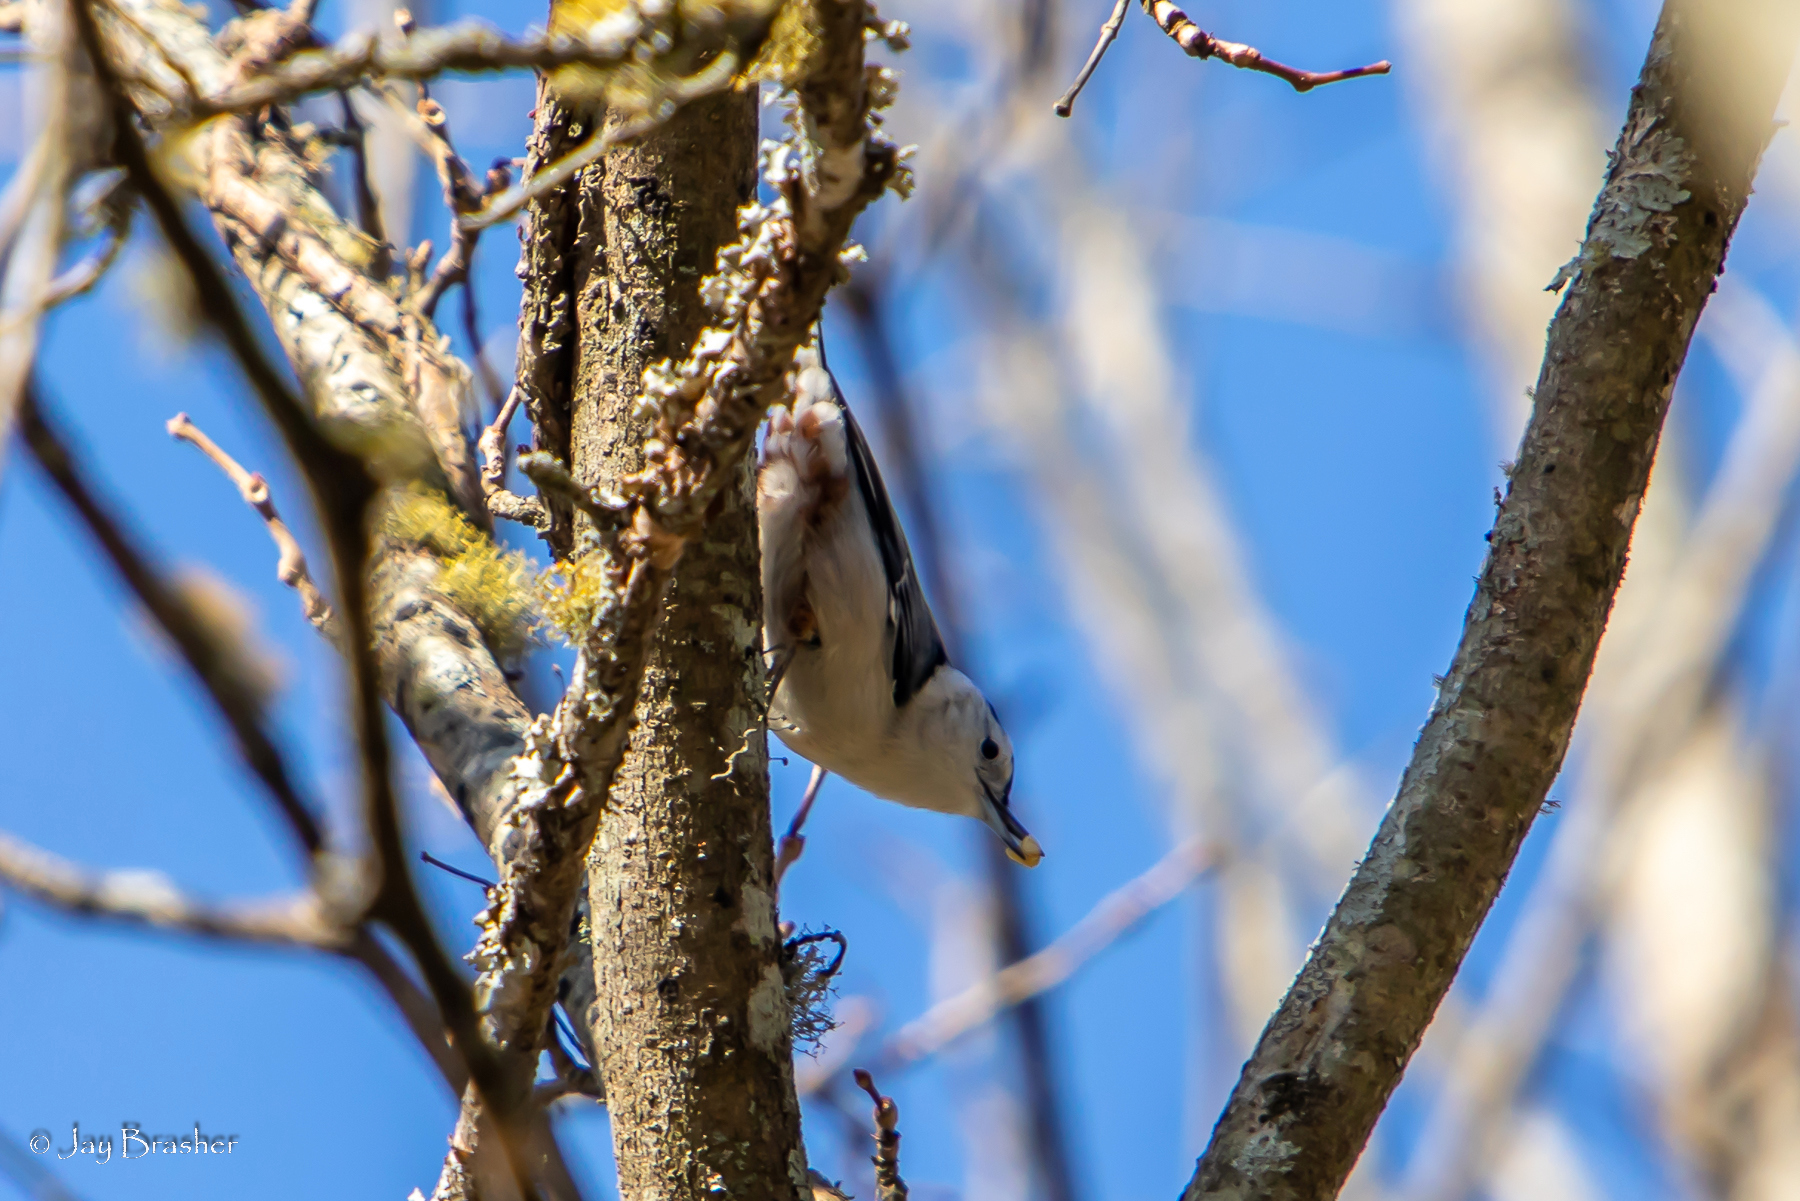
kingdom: Animalia
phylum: Chordata
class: Aves
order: Passeriformes
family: Sittidae
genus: Sitta
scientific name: Sitta carolinensis
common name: White-breasted nuthatch
